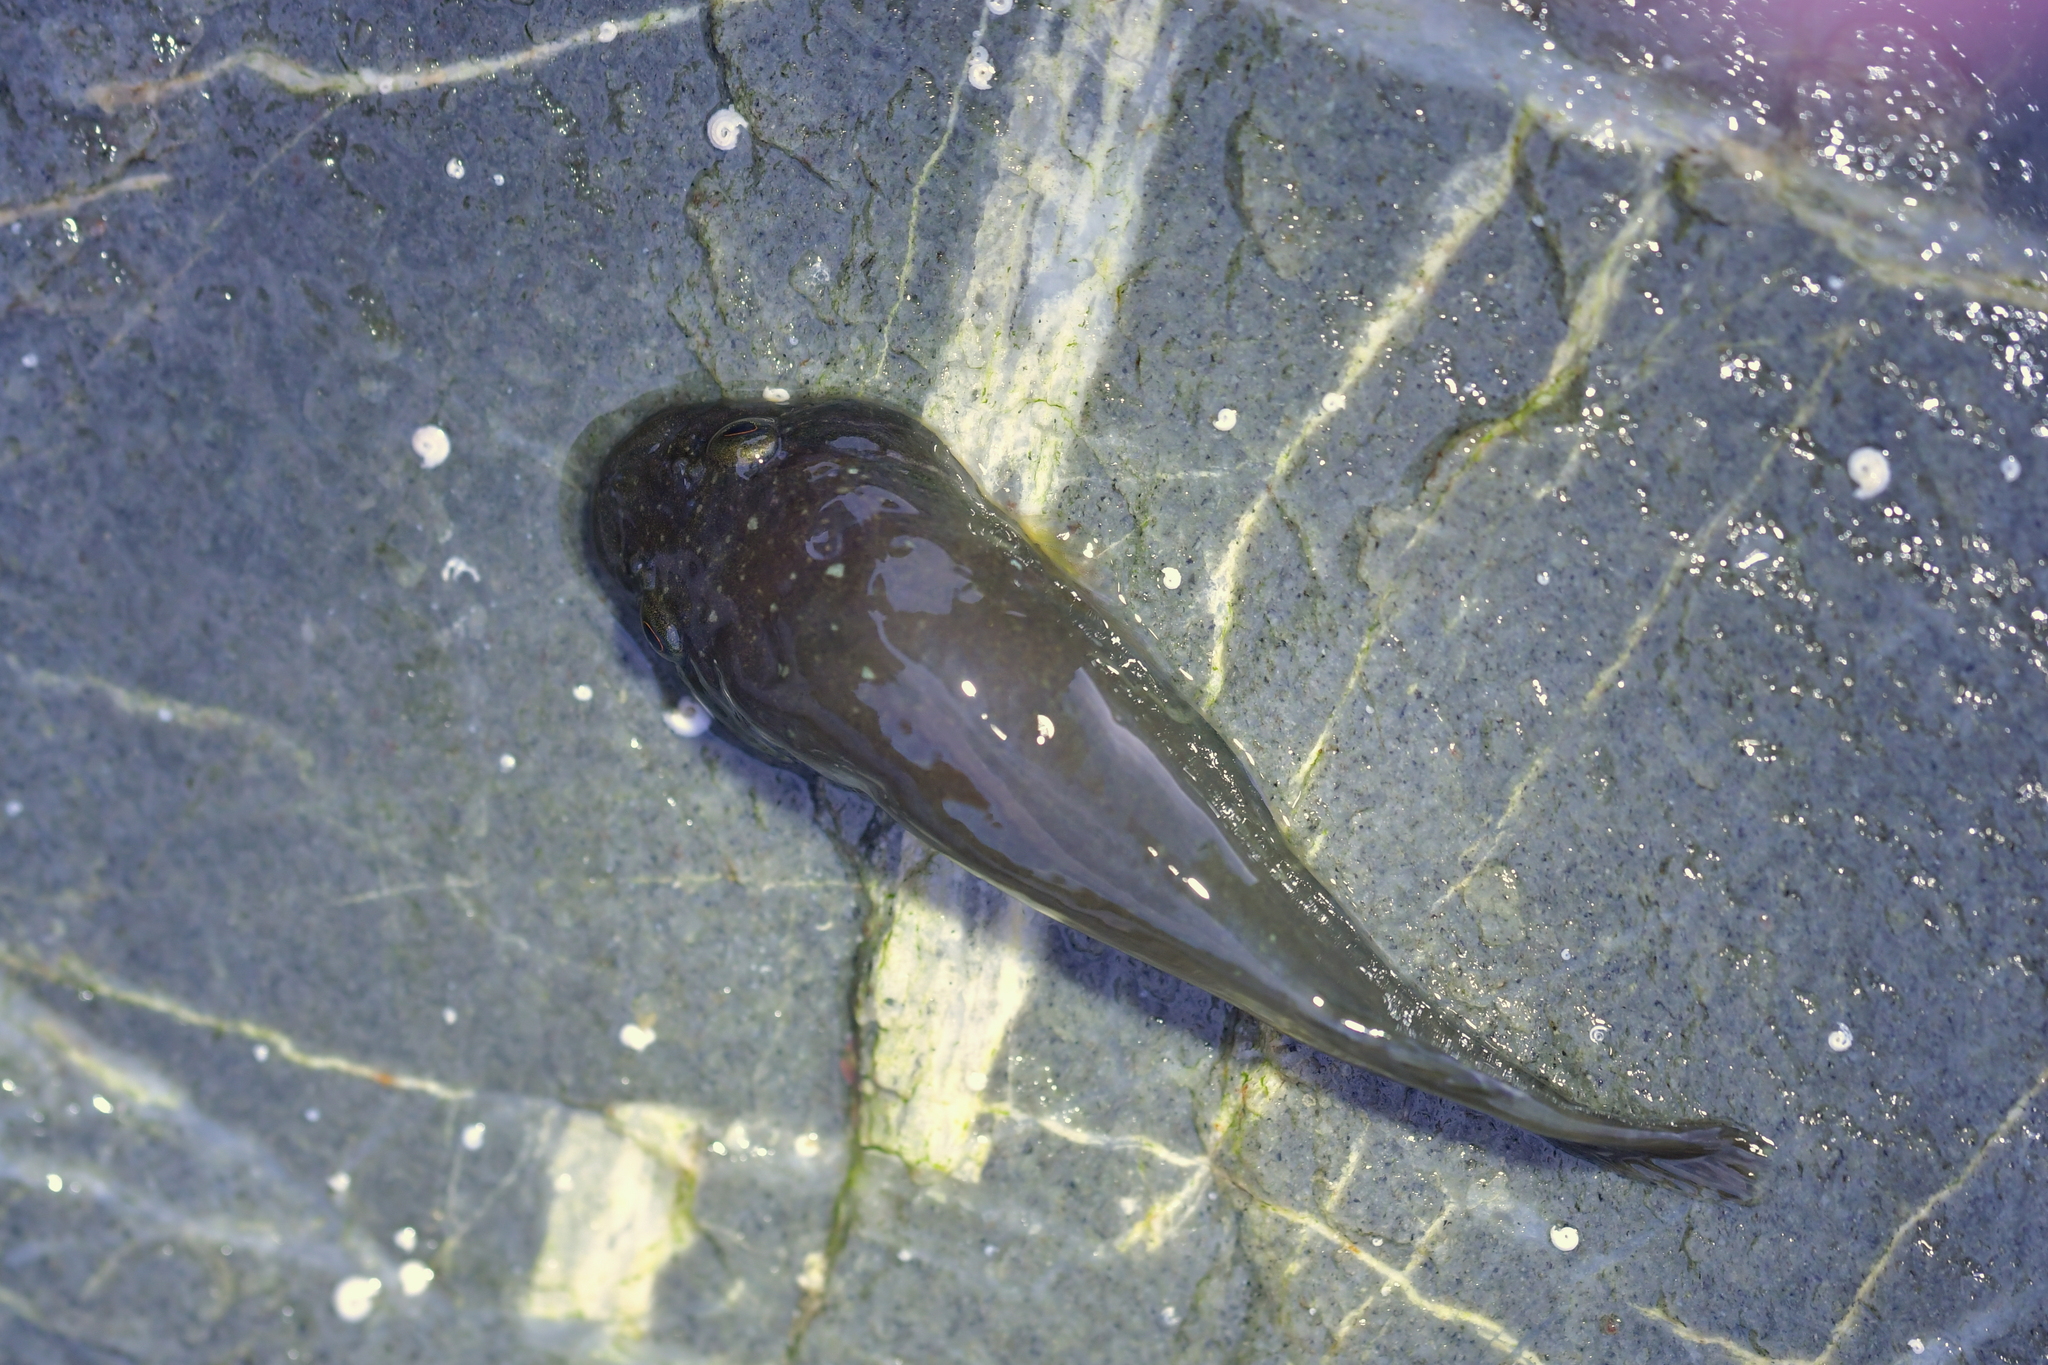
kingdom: Animalia
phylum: Chordata
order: Gobiesociformes
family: Gobiesocidae
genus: Trachelochismus
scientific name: Trachelochismus pinnulatus
